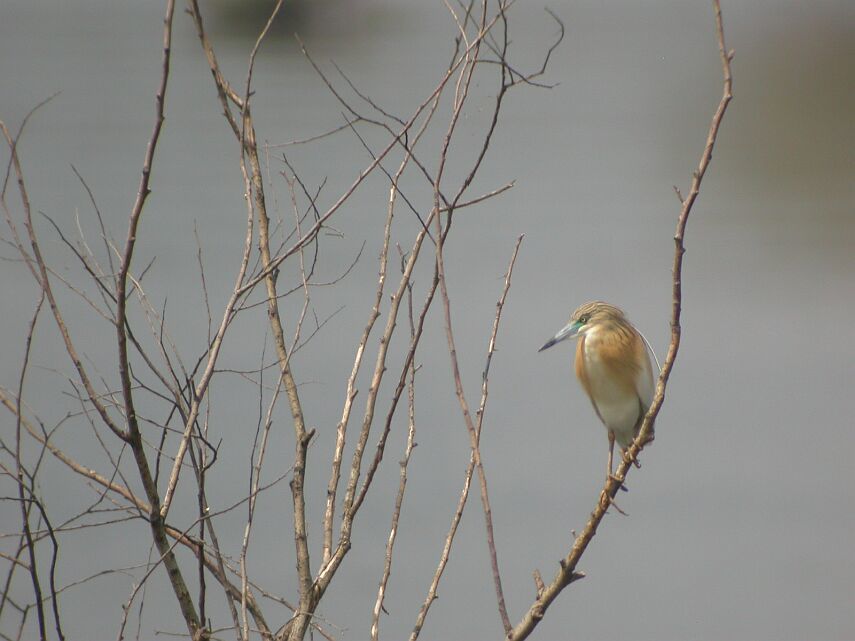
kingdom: Animalia
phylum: Chordata
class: Aves
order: Pelecaniformes
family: Ardeidae
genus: Ardeola
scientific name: Ardeola ralloides
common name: Squacco heron
